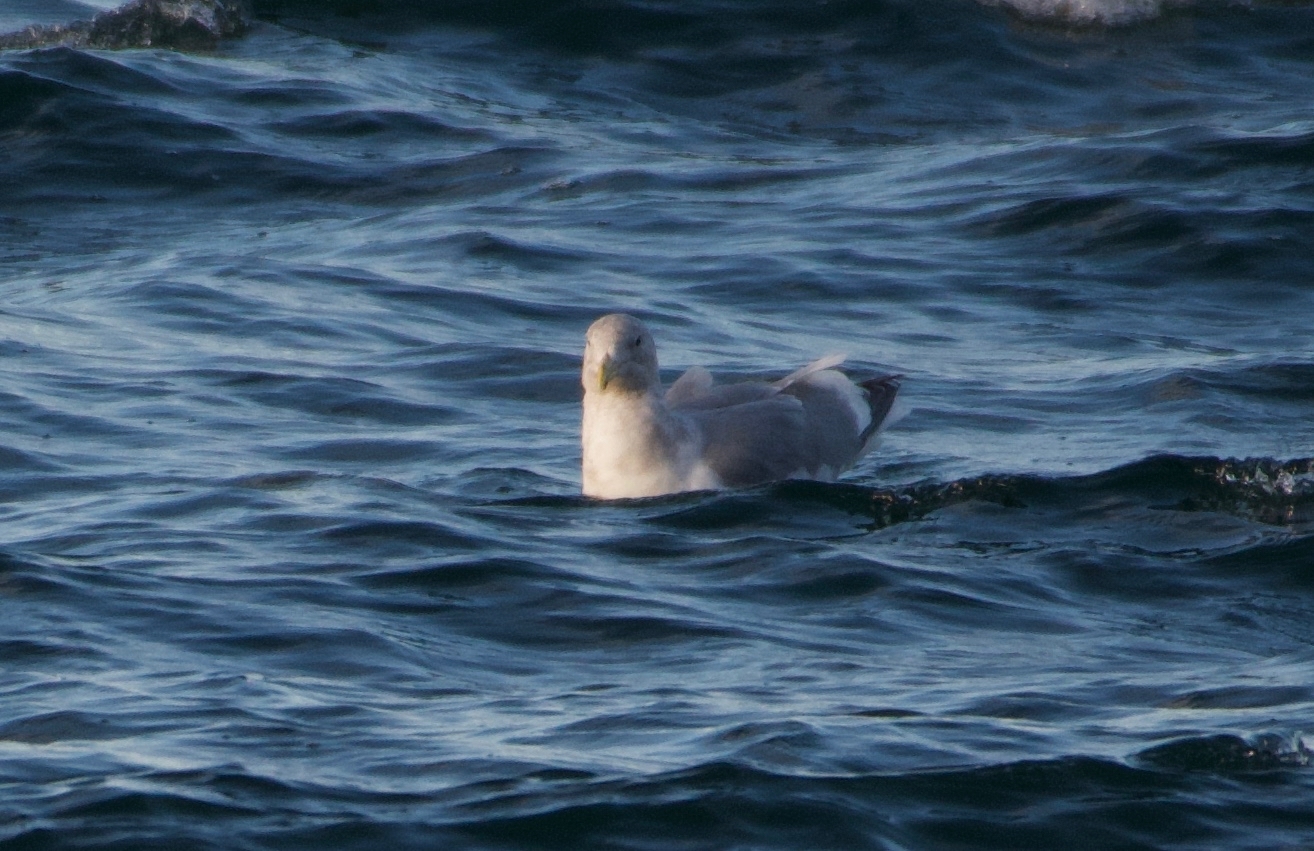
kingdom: Animalia
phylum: Chordata
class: Aves
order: Charadriiformes
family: Laridae
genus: Larus
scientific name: Larus
